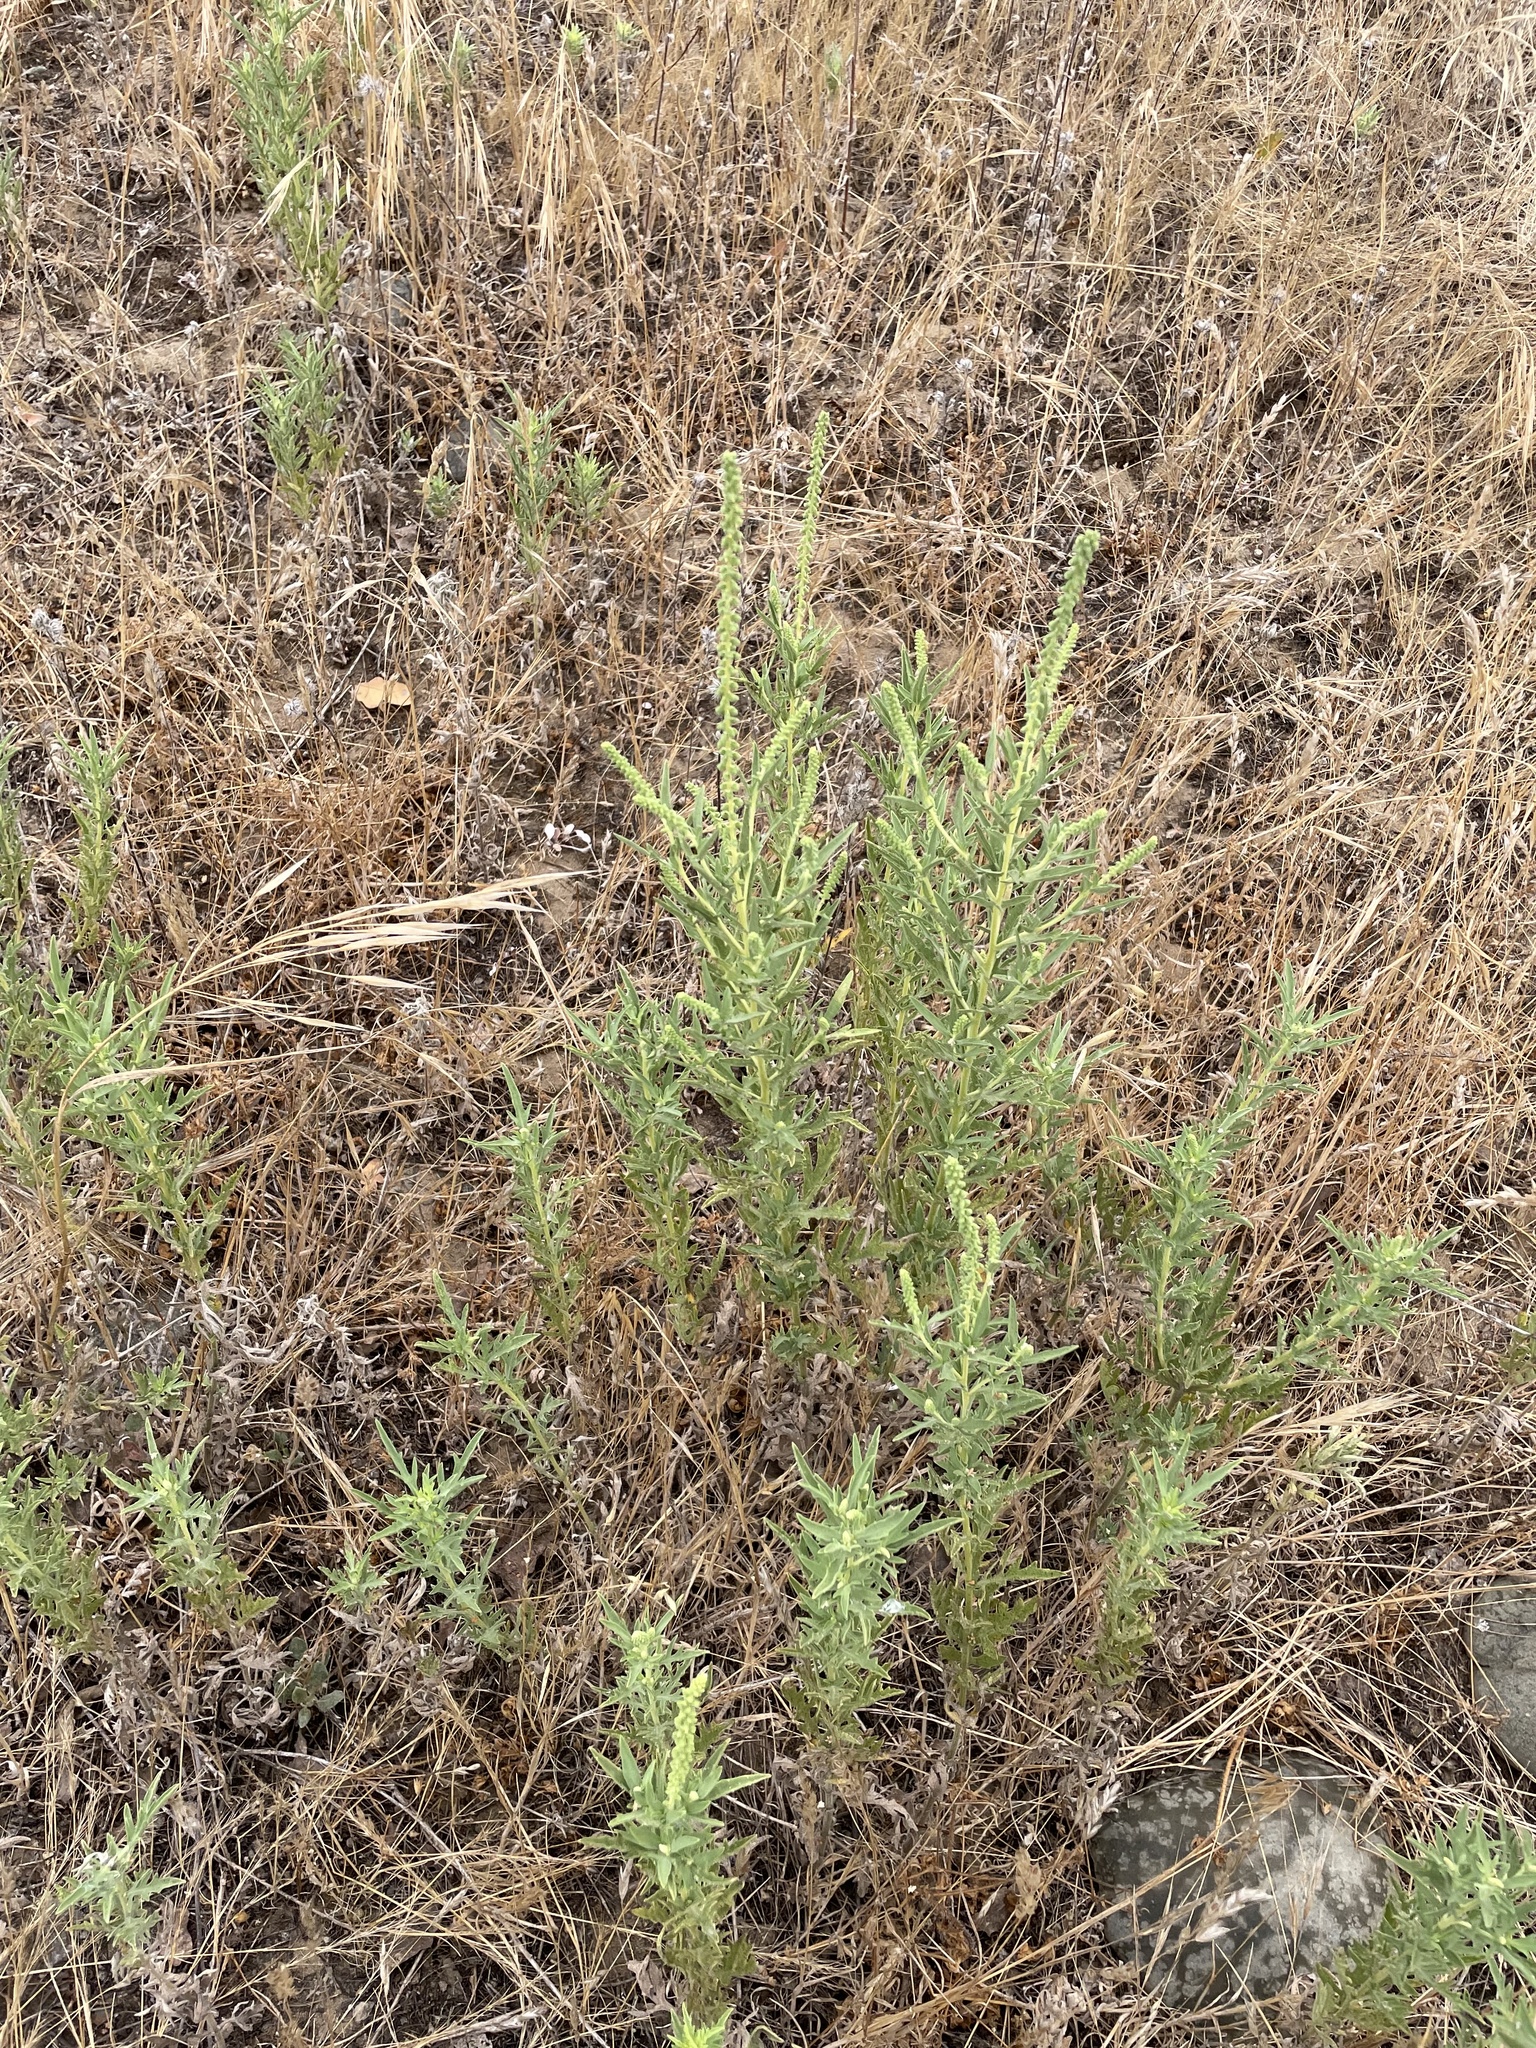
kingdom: Plantae
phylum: Tracheophyta
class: Magnoliopsida
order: Asterales
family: Asteraceae
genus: Ambrosia
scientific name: Ambrosia psilostachya
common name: Perennial ragweed
